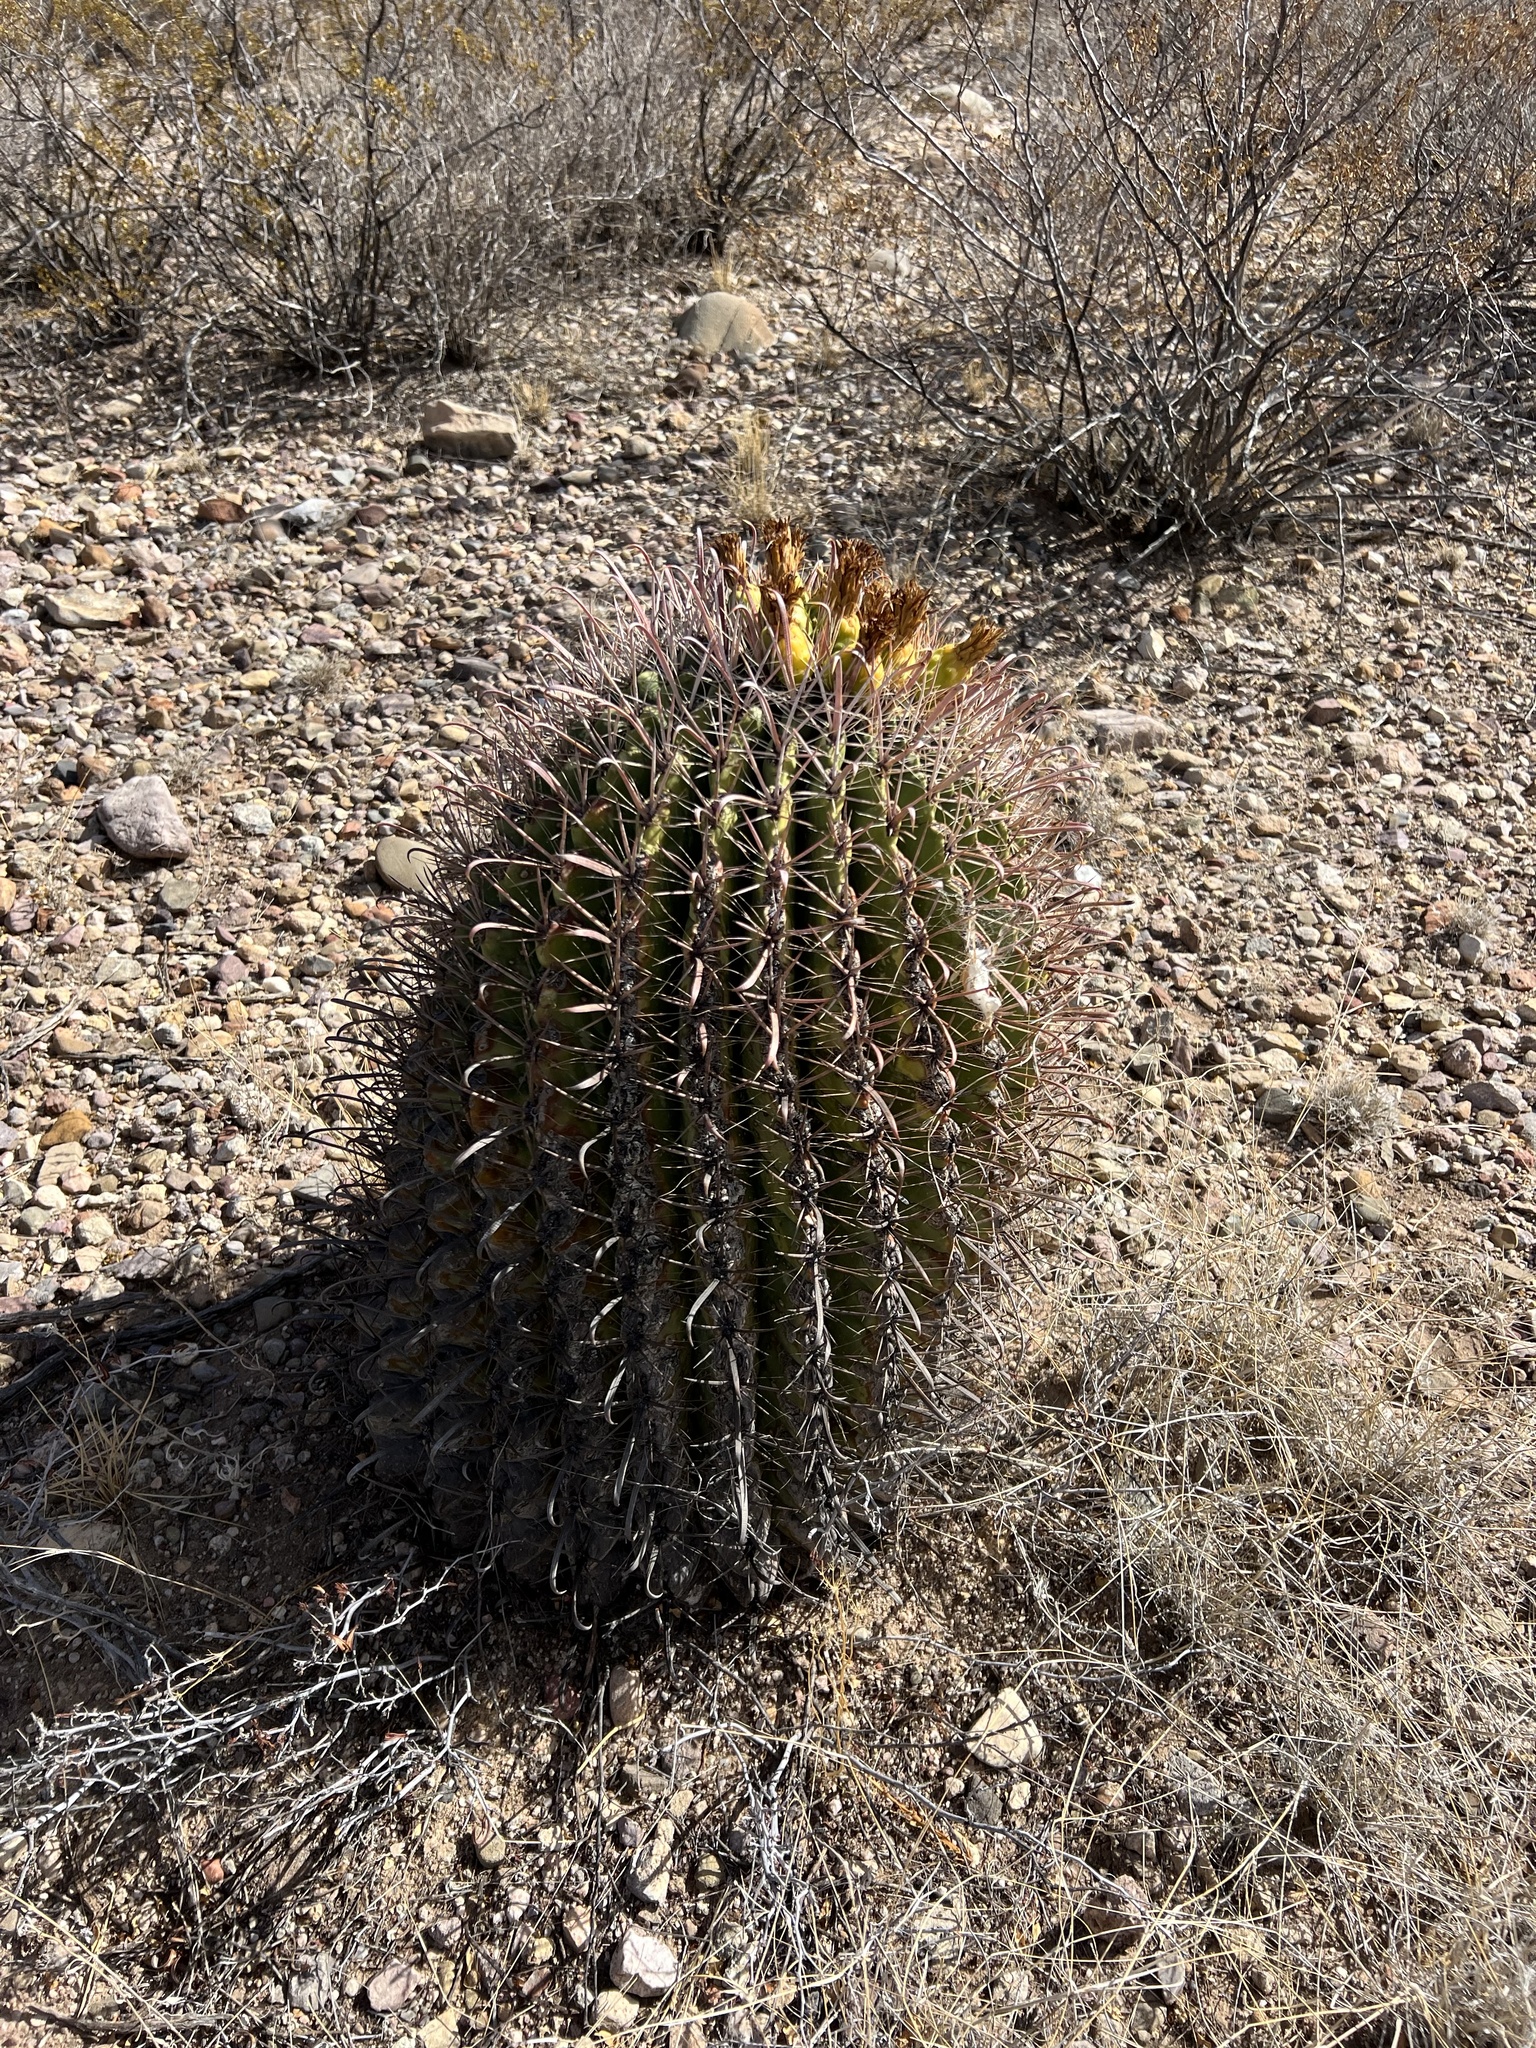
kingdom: Plantae
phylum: Tracheophyta
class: Magnoliopsida
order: Caryophyllales
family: Cactaceae
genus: Ferocactus
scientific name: Ferocactus wislizeni
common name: Candy barrel cactus
